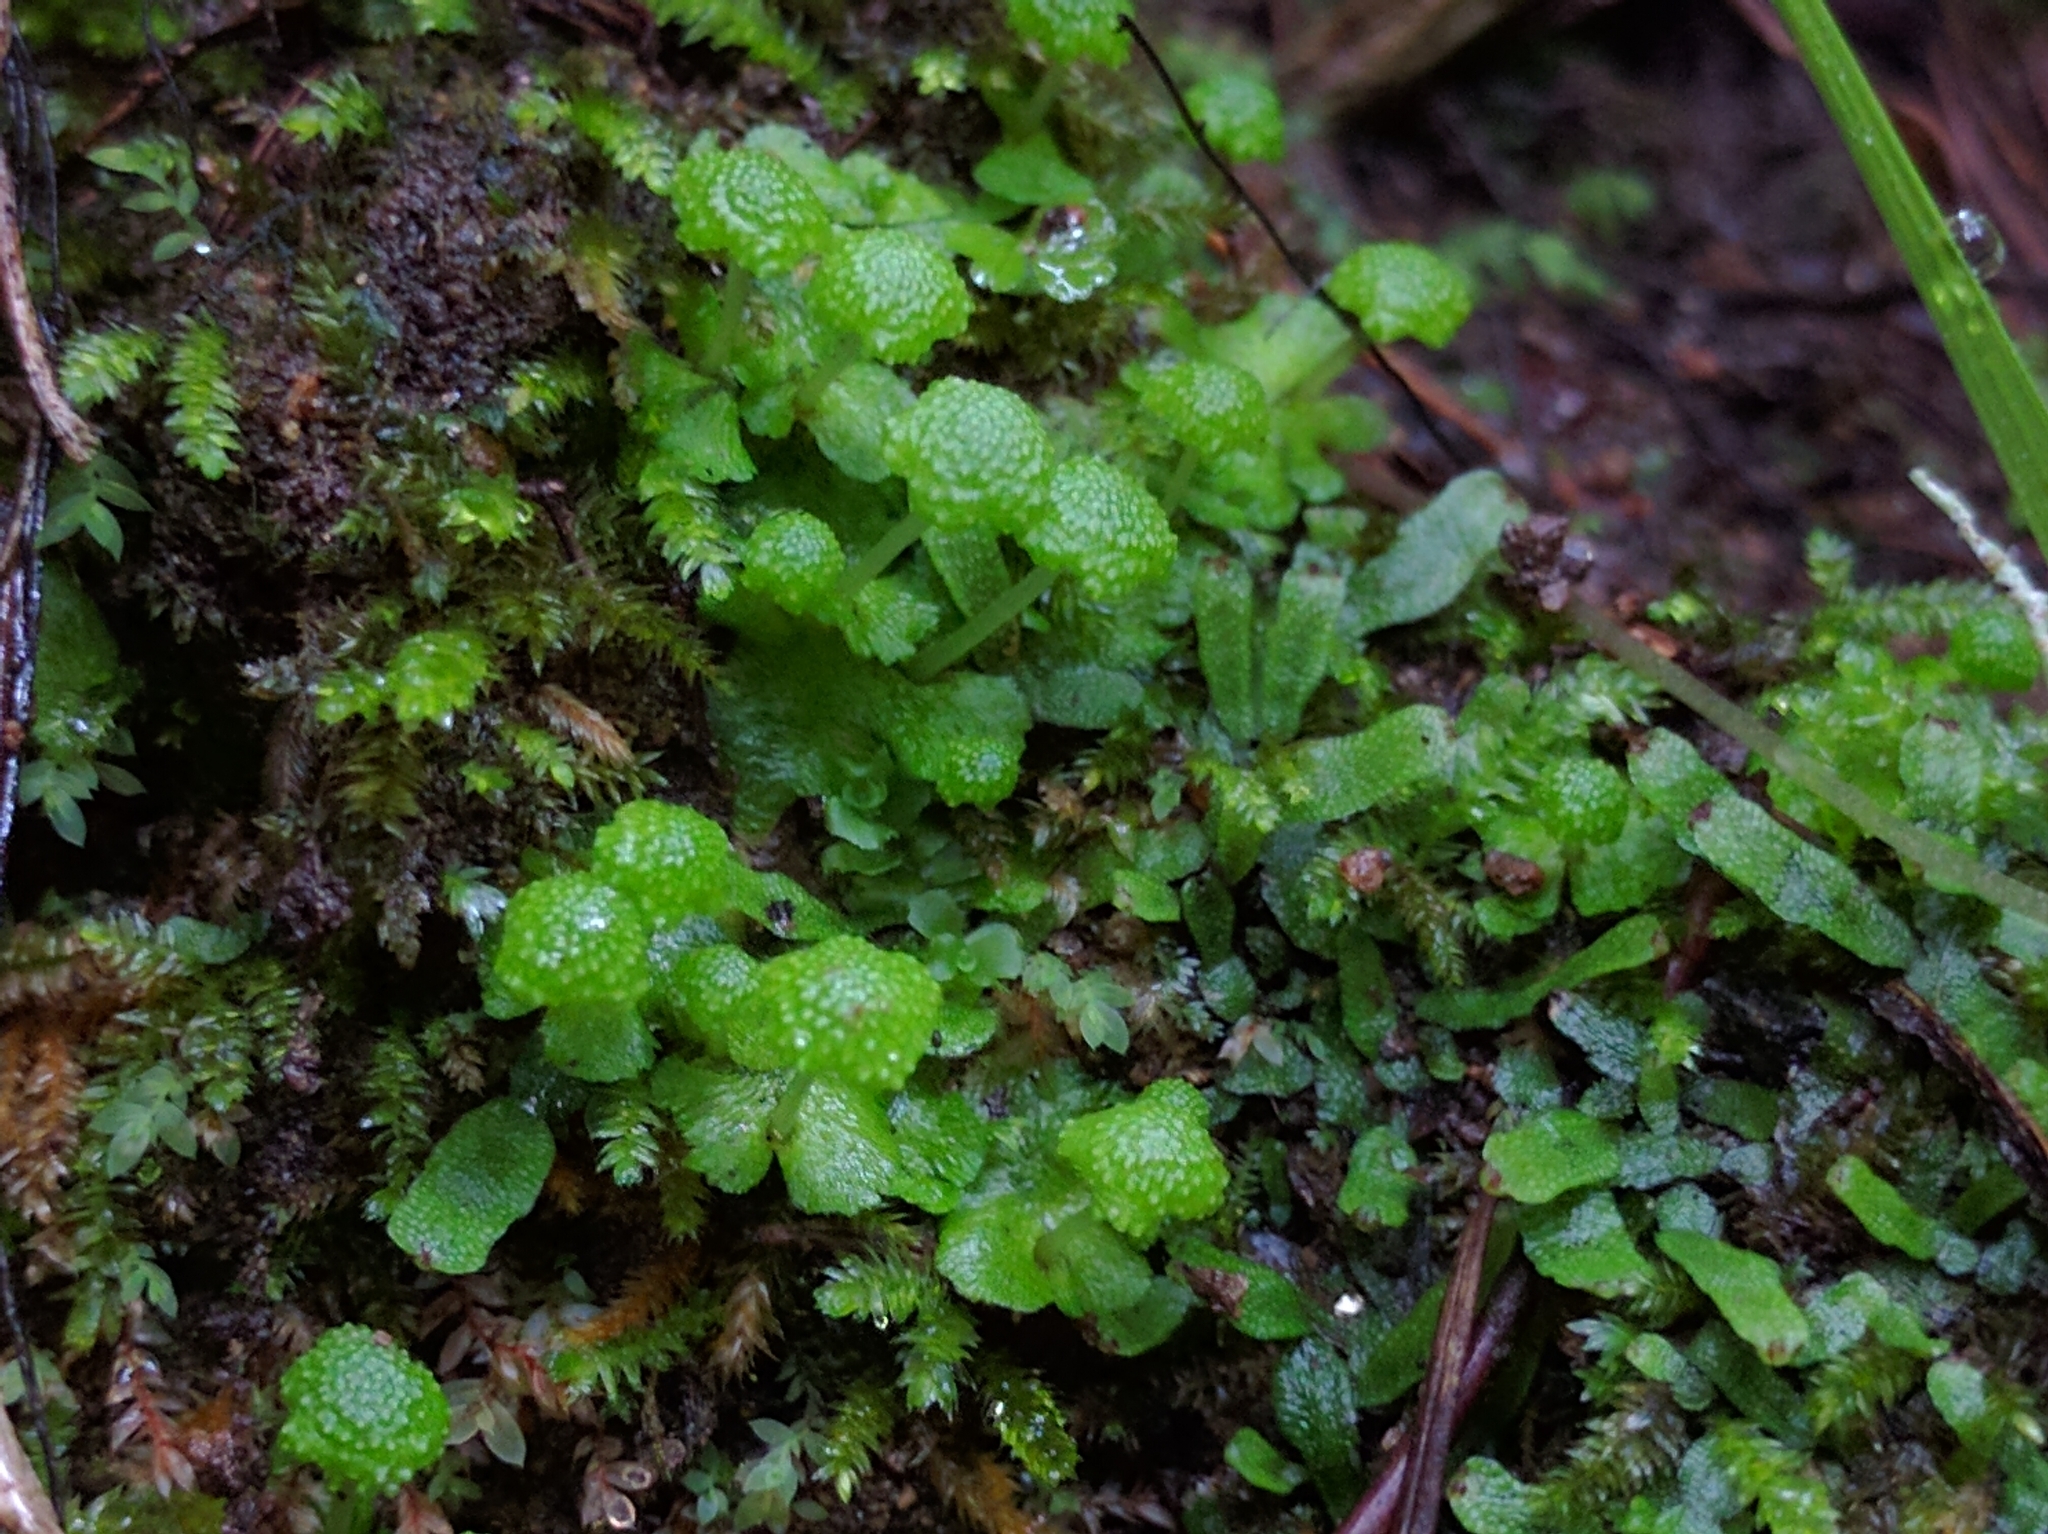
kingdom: Plantae
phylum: Marchantiophyta
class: Marchantiopsida
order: Marchantiales
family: Aytoniaceae
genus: Cryptomitrium
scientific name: Cryptomitrium tenerum
